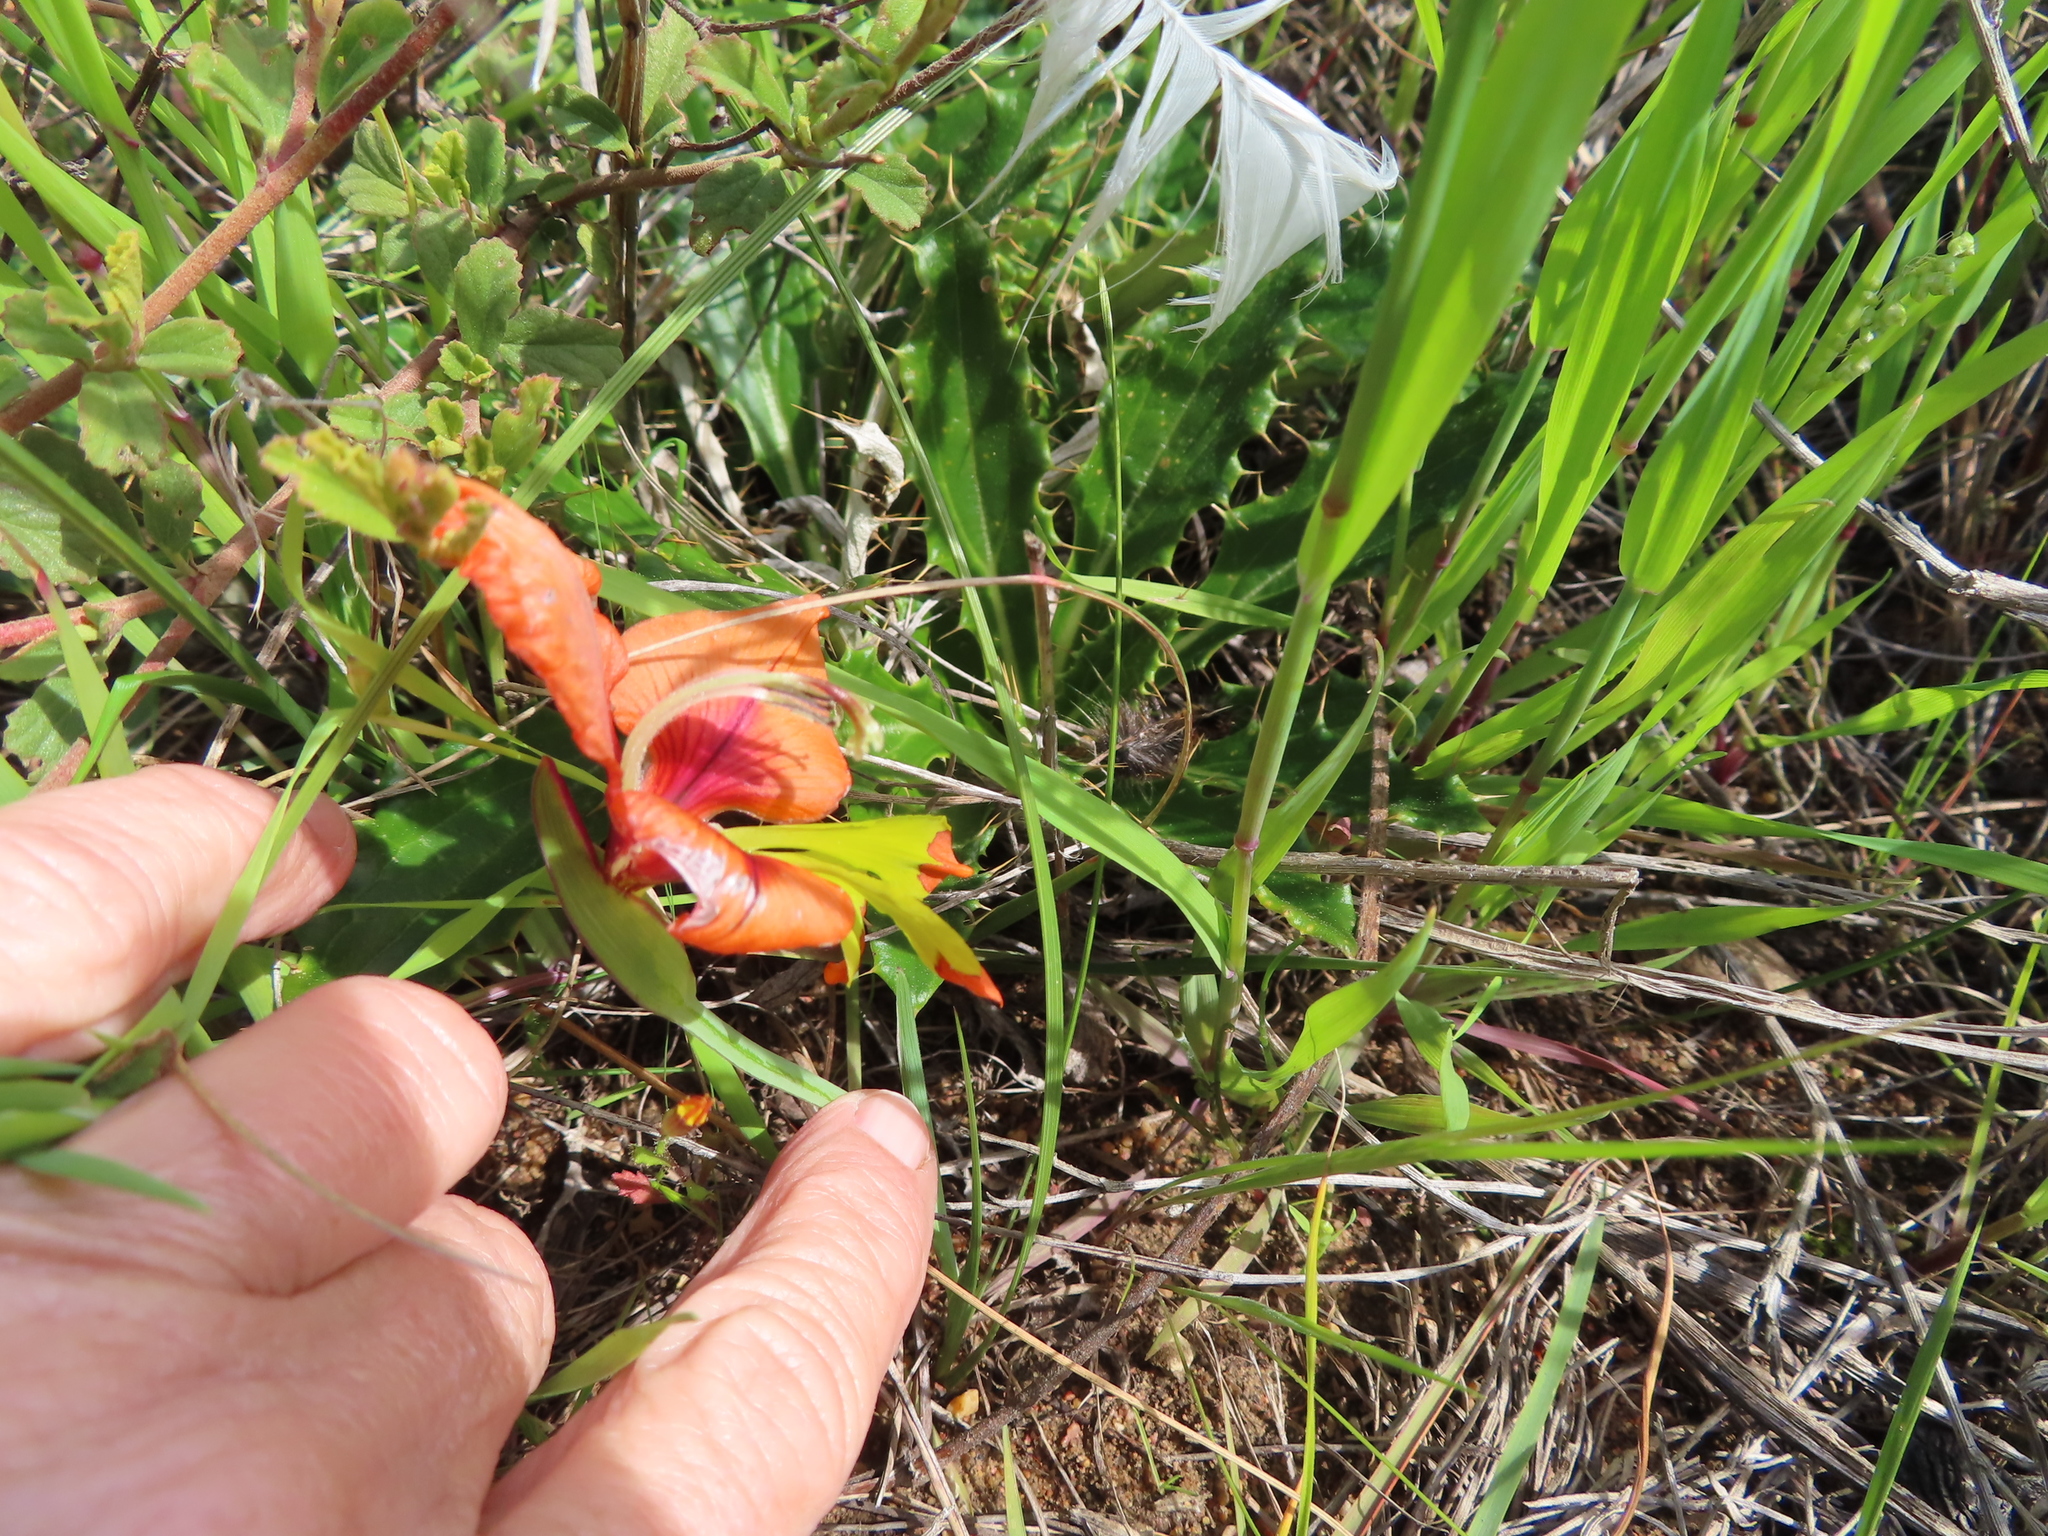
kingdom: Plantae
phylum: Tracheophyta
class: Liliopsida
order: Asparagales
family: Iridaceae
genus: Gladiolus
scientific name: Gladiolus alatus
